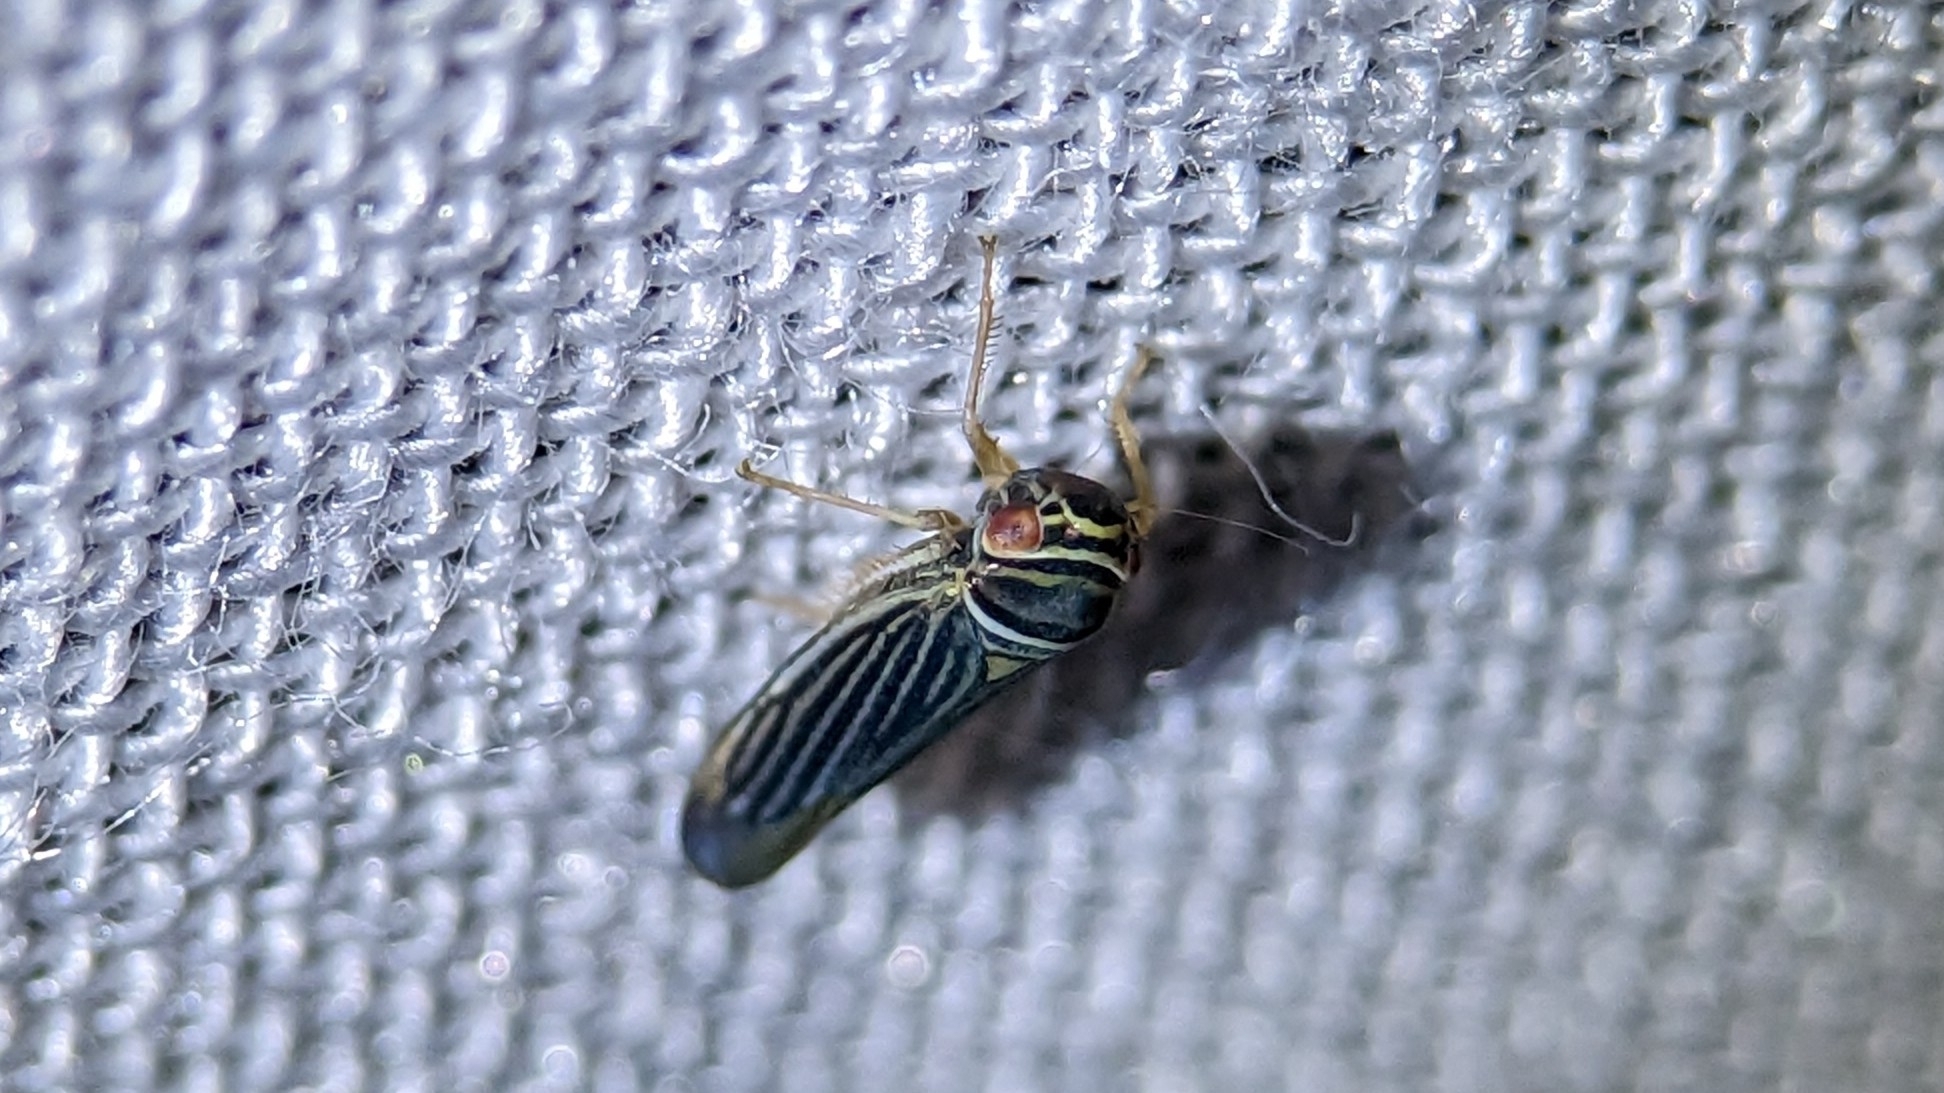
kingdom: Animalia
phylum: Arthropoda
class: Insecta
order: Hemiptera
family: Cicadellidae
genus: Tylozygus
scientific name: Tylozygus bifidus
